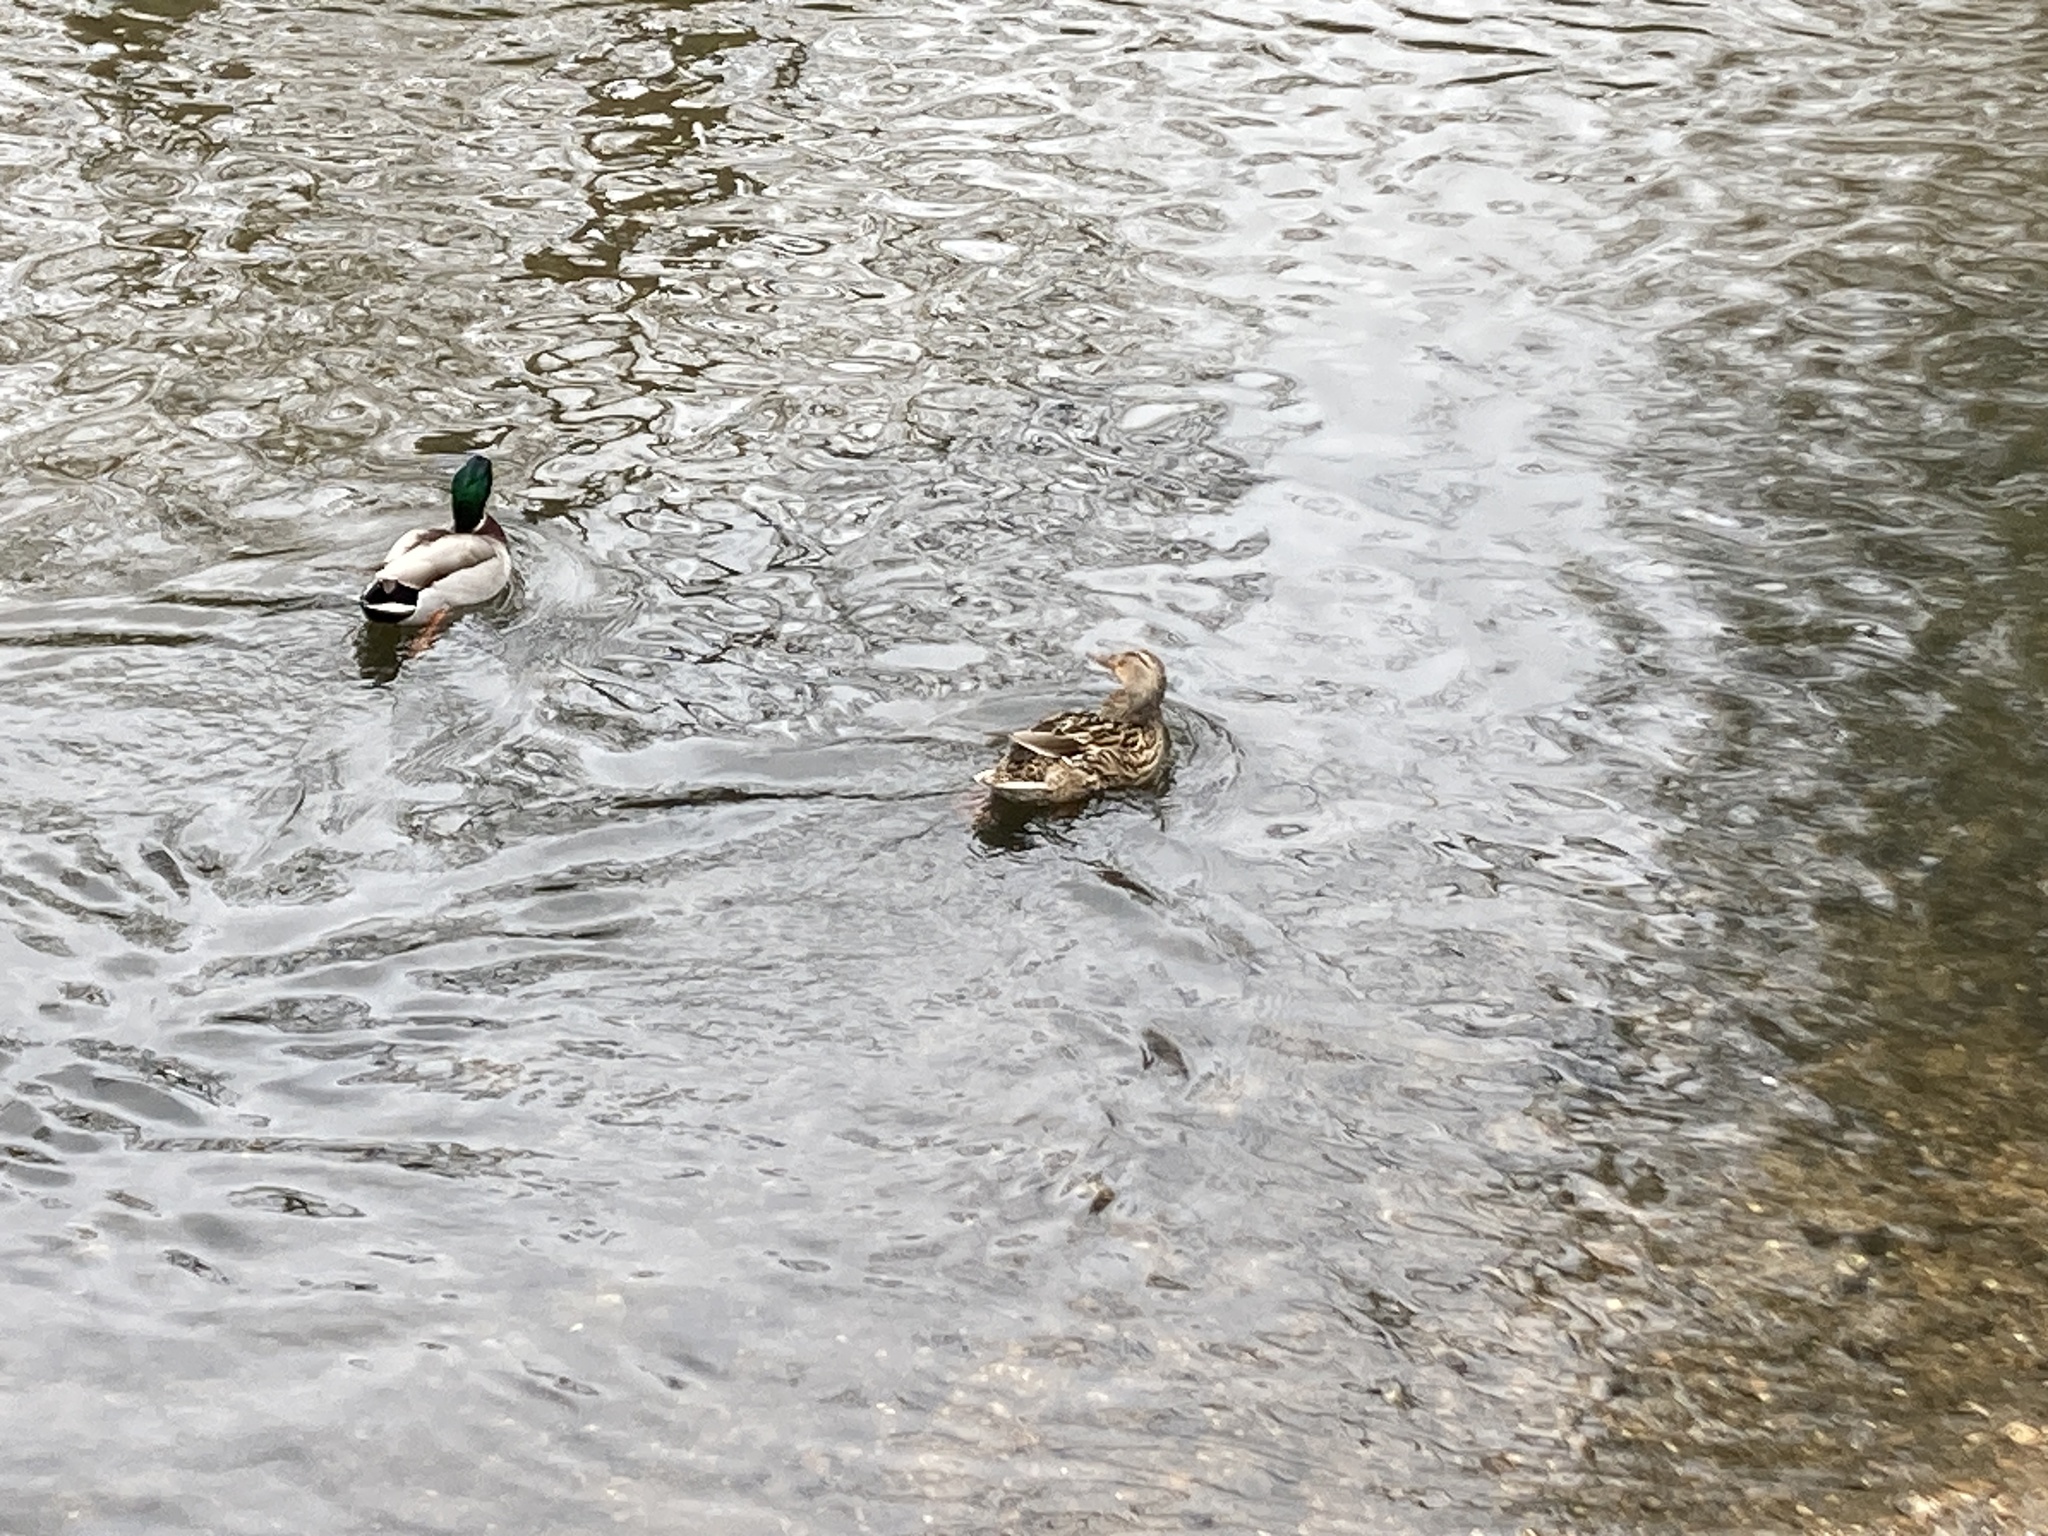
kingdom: Animalia
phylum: Chordata
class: Aves
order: Anseriformes
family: Anatidae
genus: Anas
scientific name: Anas platyrhynchos
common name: Mallard
